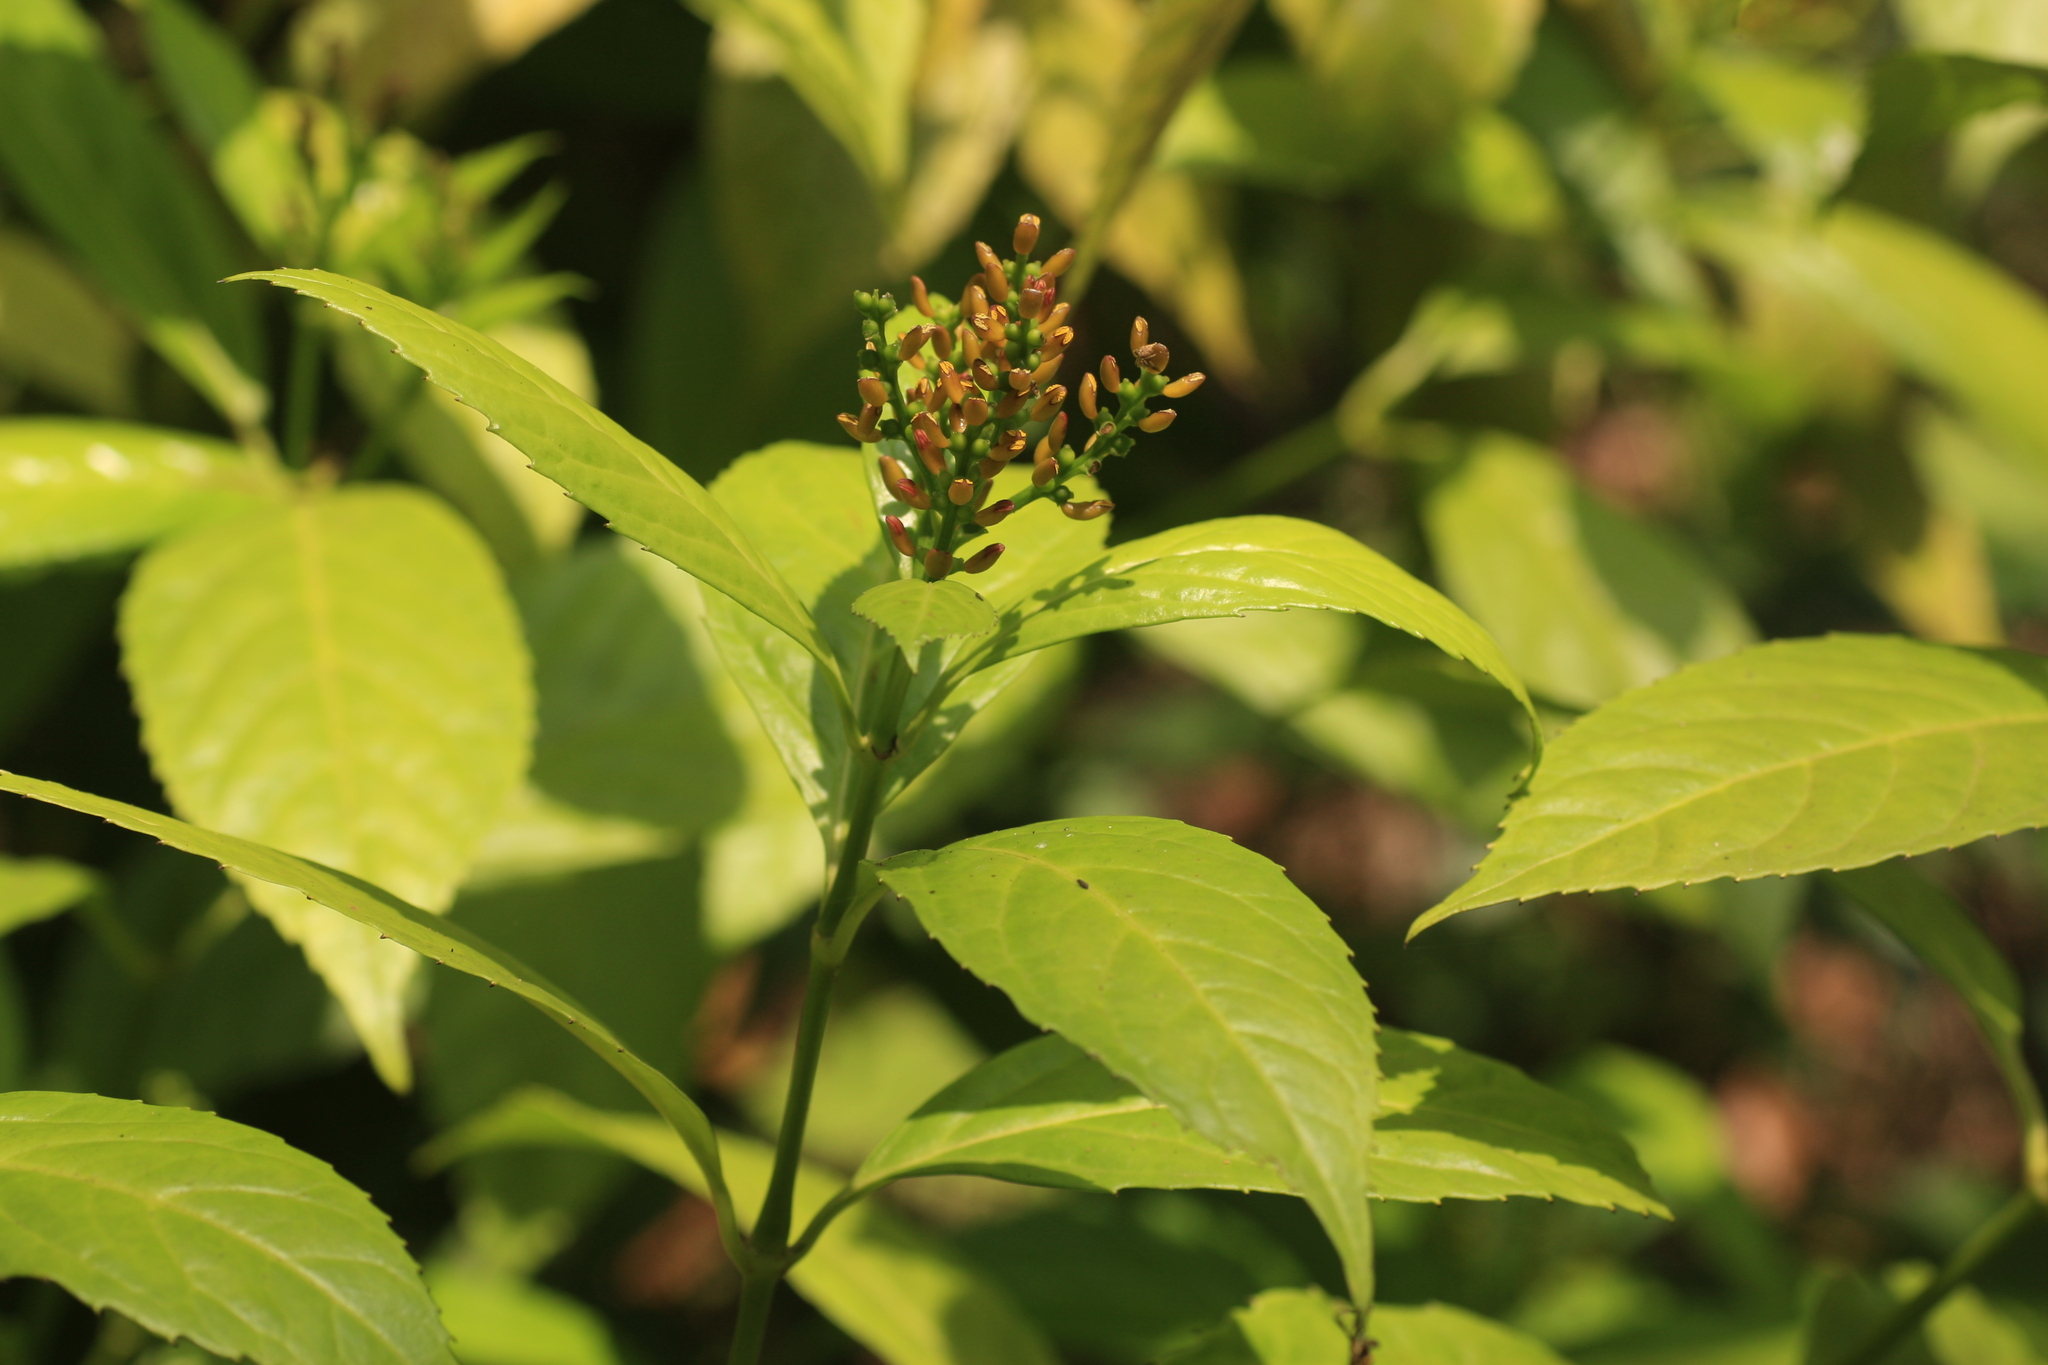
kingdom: Plantae
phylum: Tracheophyta
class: Magnoliopsida
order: Chloranthales
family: Chloranthaceae
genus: Sarcandra
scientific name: Sarcandra glabra
